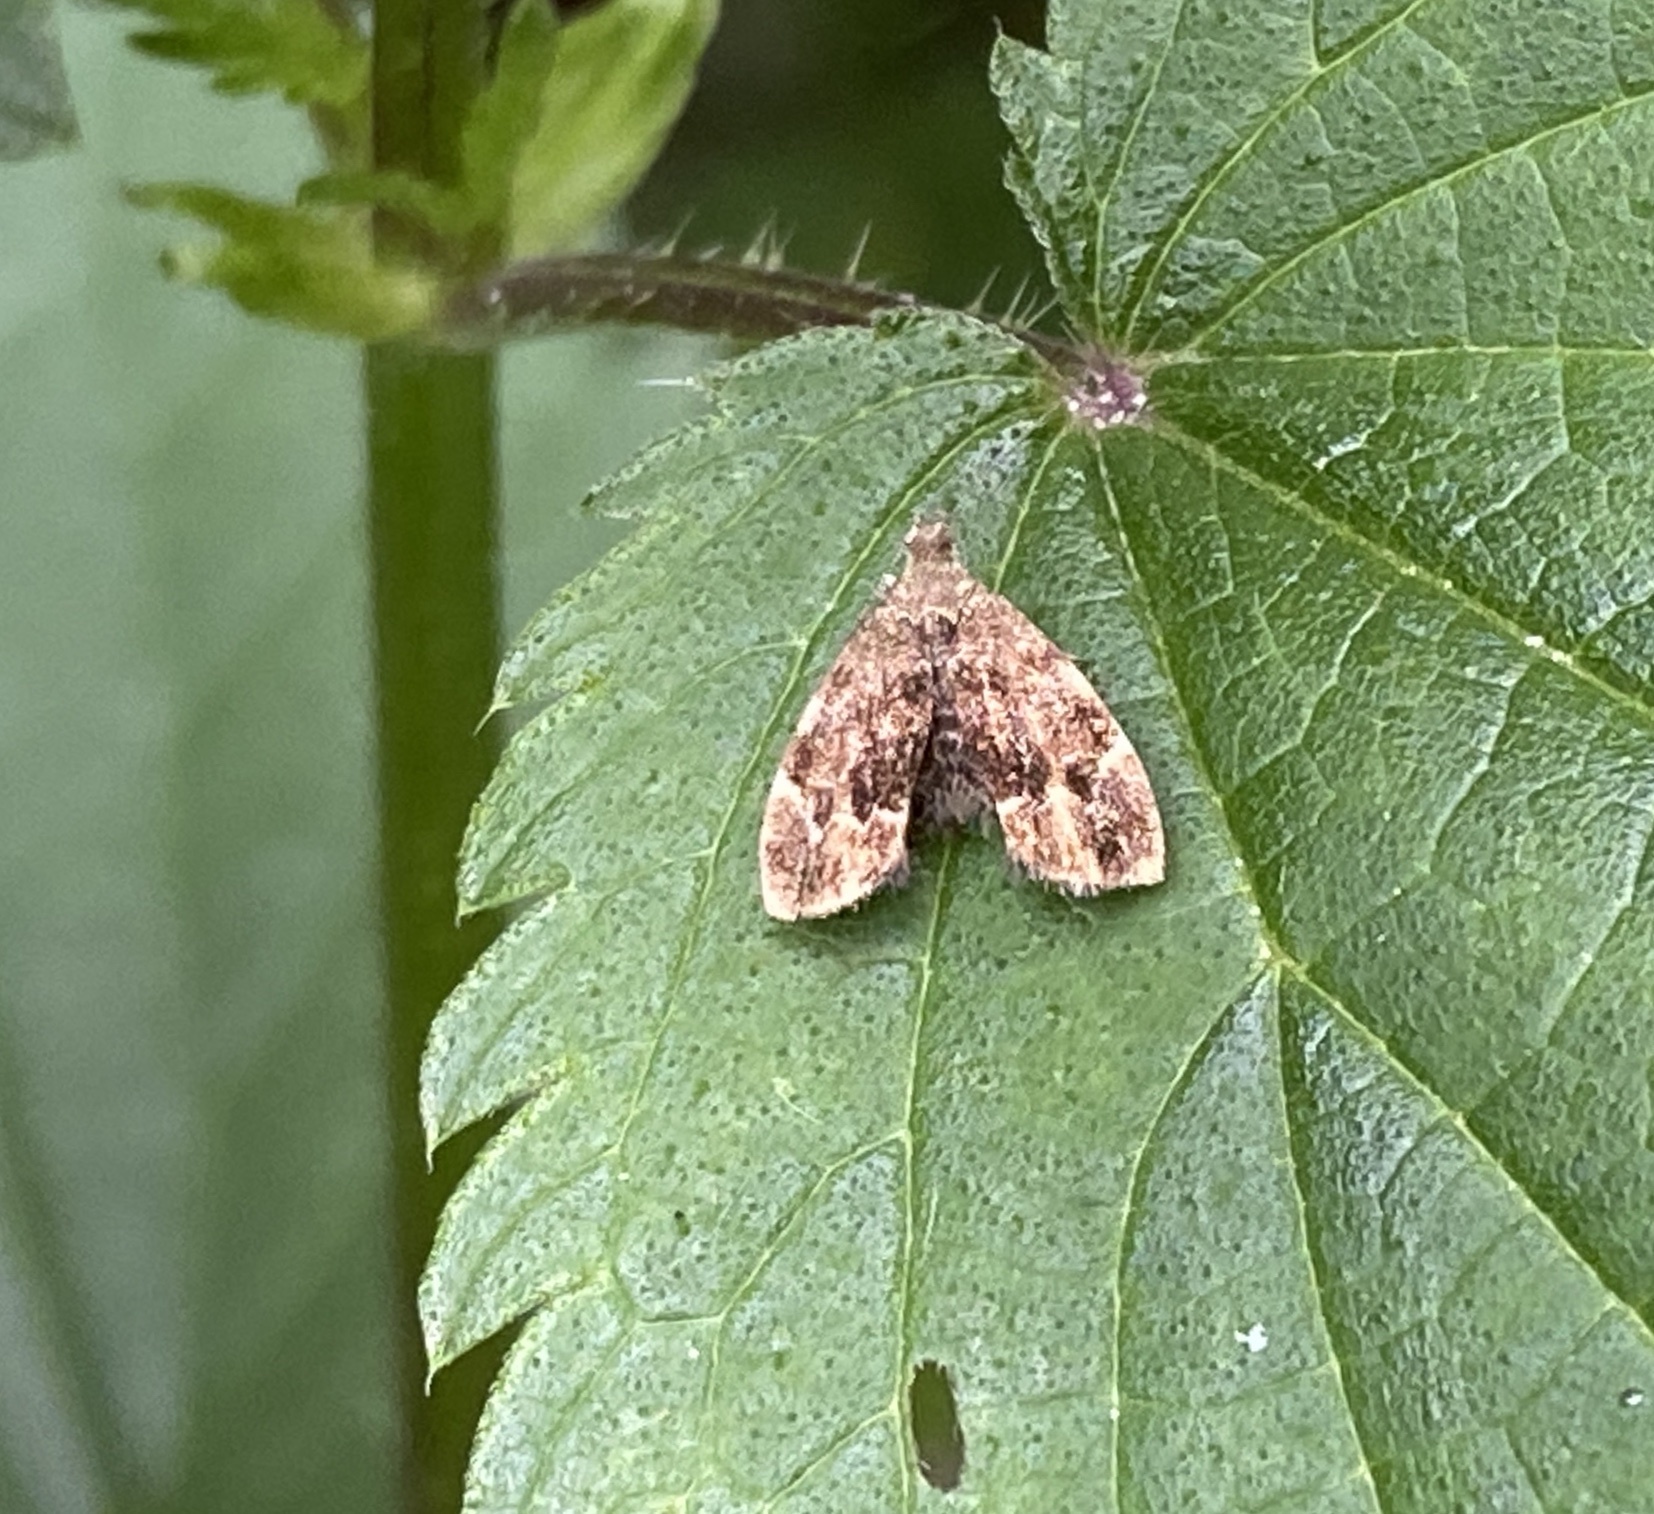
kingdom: Animalia
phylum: Arthropoda
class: Insecta
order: Lepidoptera
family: Choreutidae
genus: Anthophila
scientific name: Anthophila fabriciana
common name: Nettle-tap
